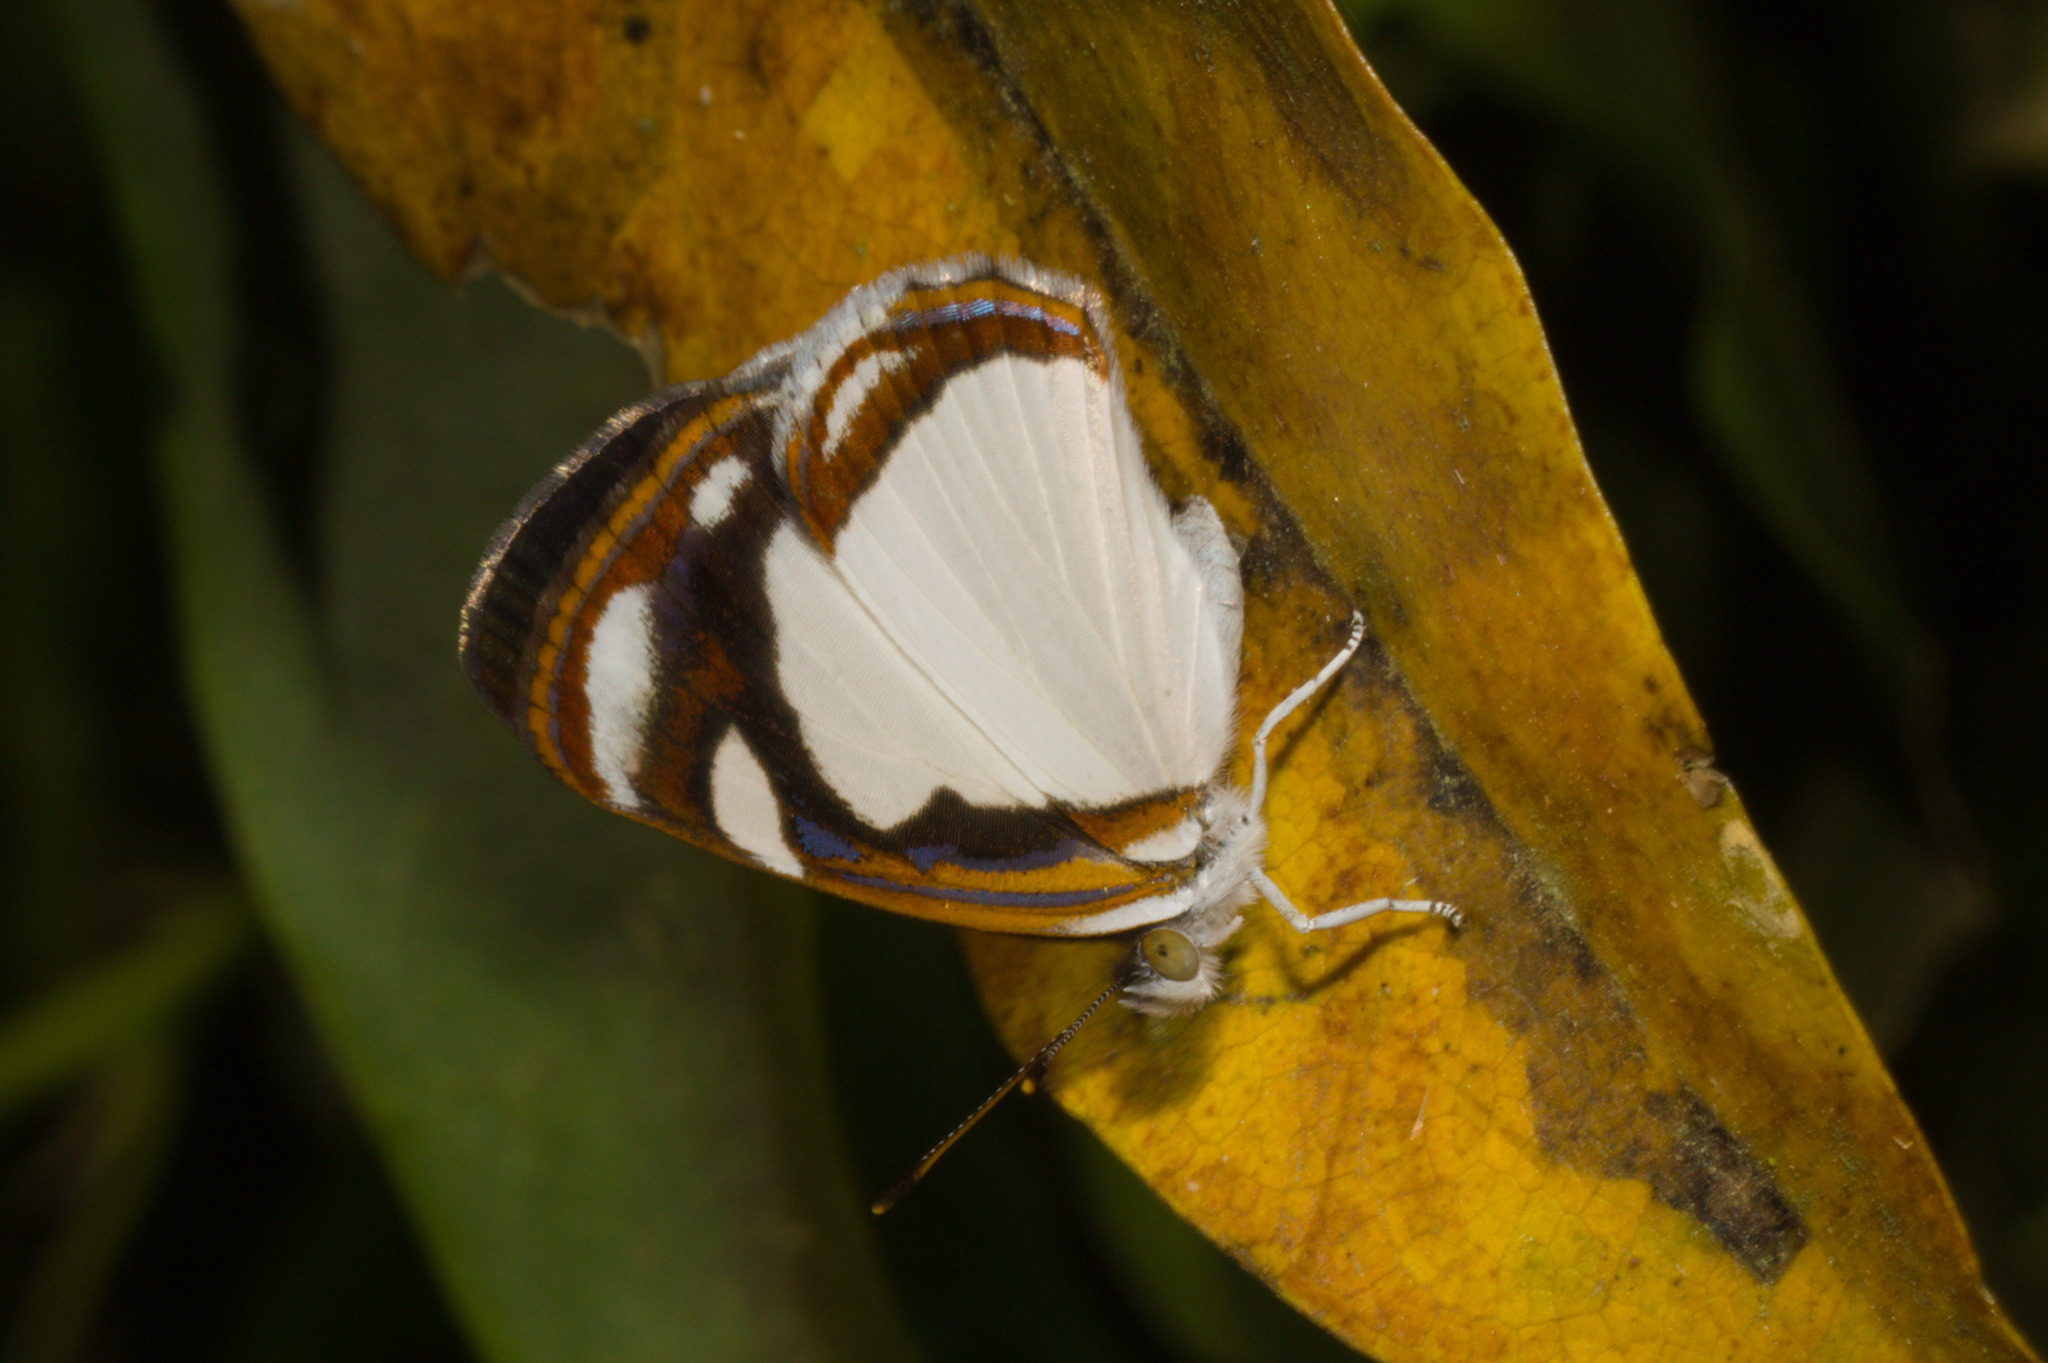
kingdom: Animalia
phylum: Arthropoda
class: Insecta
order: Lepidoptera
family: Nymphalidae
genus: Dynamine
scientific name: Dynamine agacles
